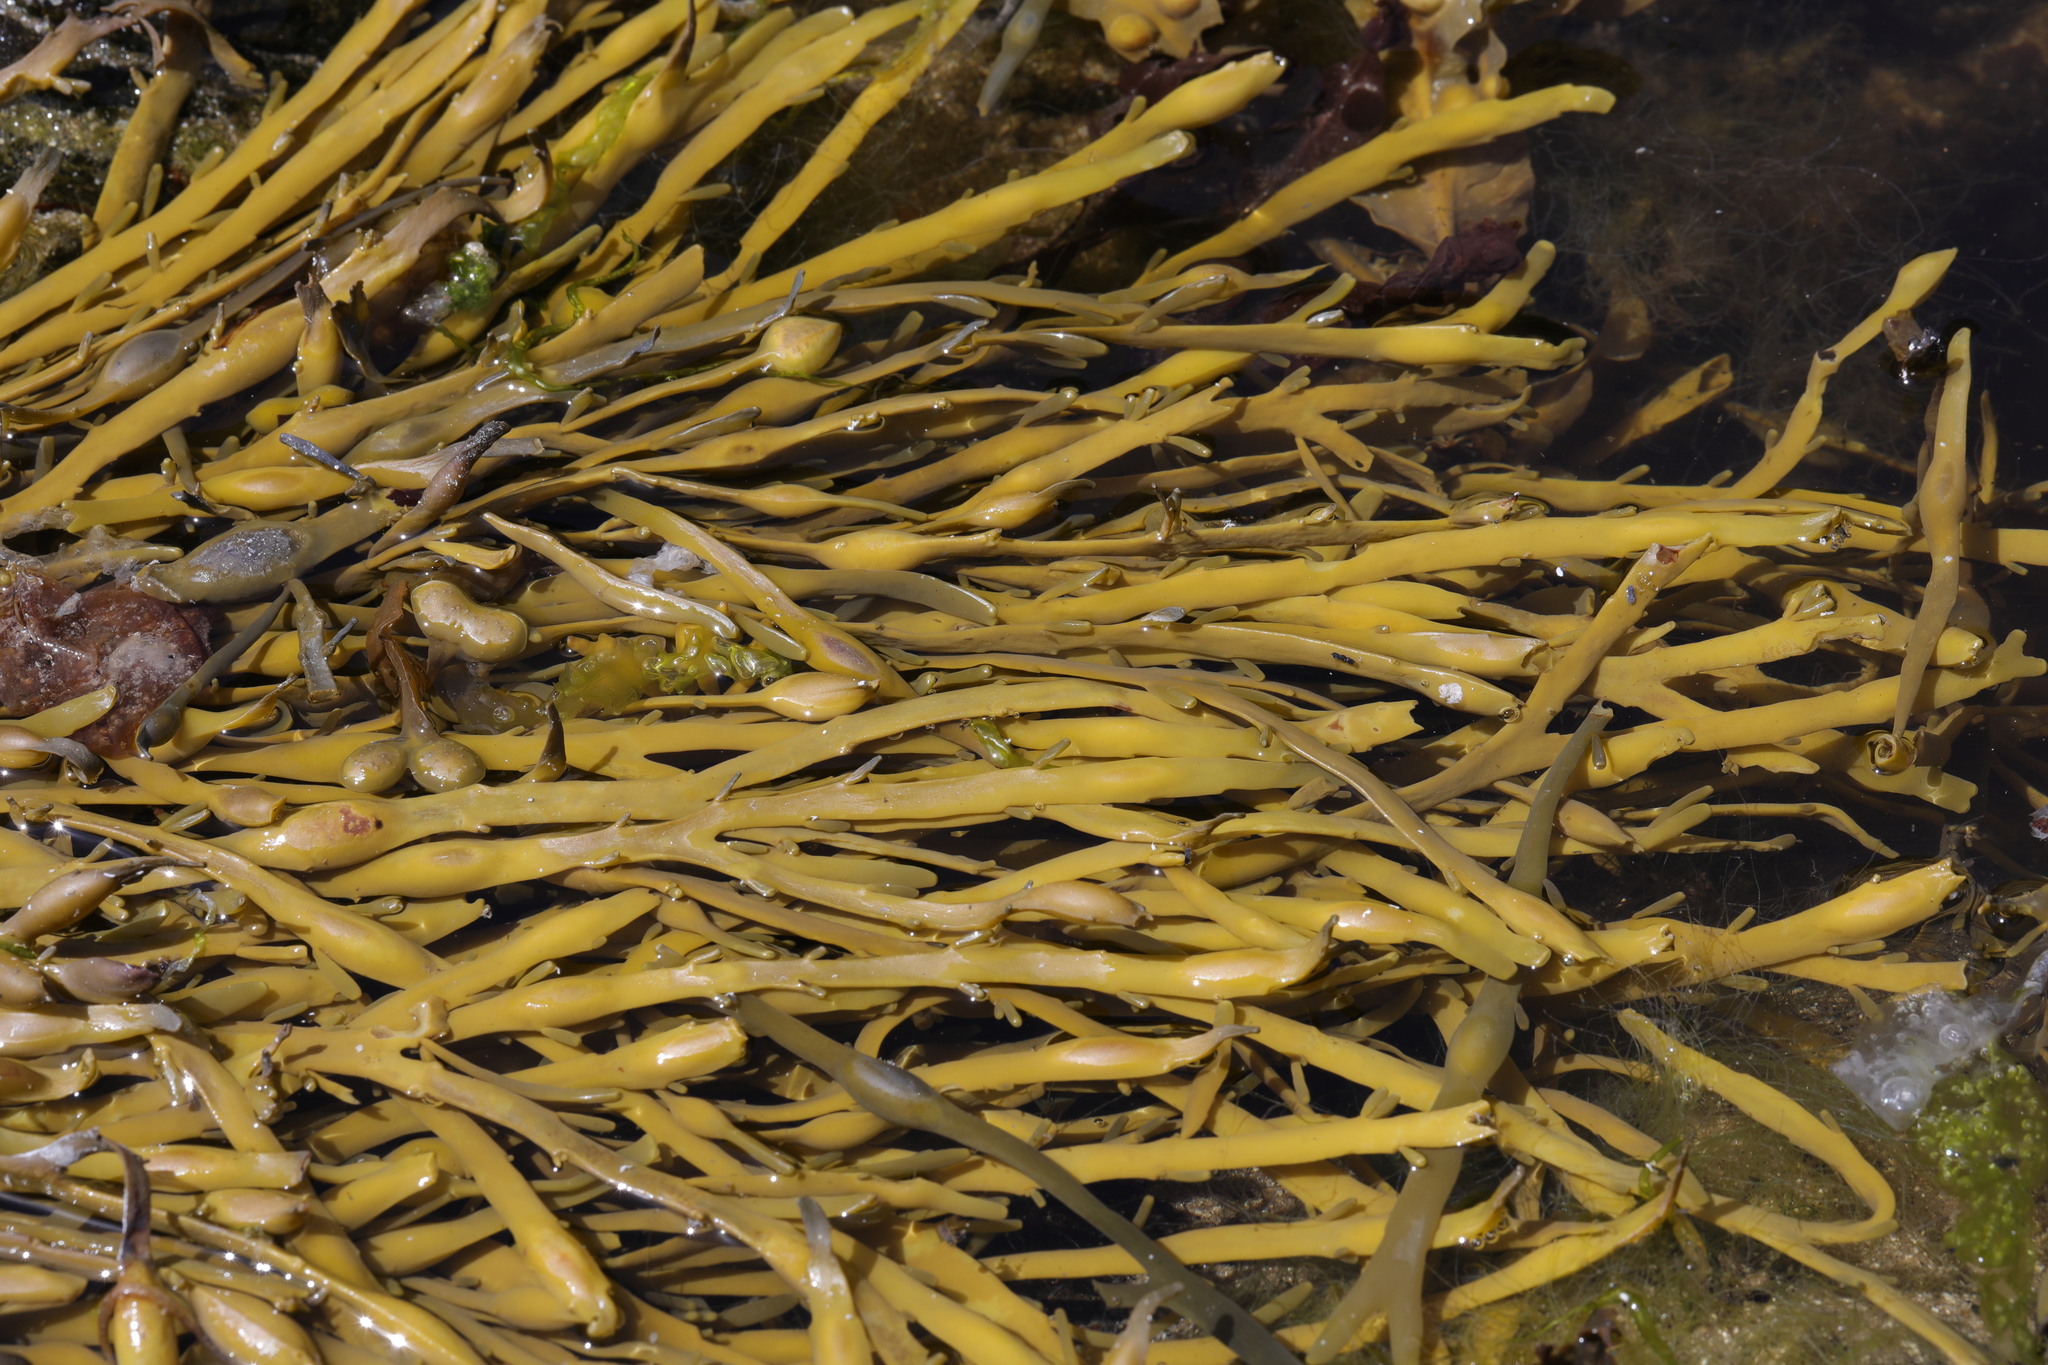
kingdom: Chromista
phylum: Ochrophyta
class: Phaeophyceae
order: Fucales
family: Fucaceae
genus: Ascophyllum
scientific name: Ascophyllum nodosum
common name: Knotted wrack
